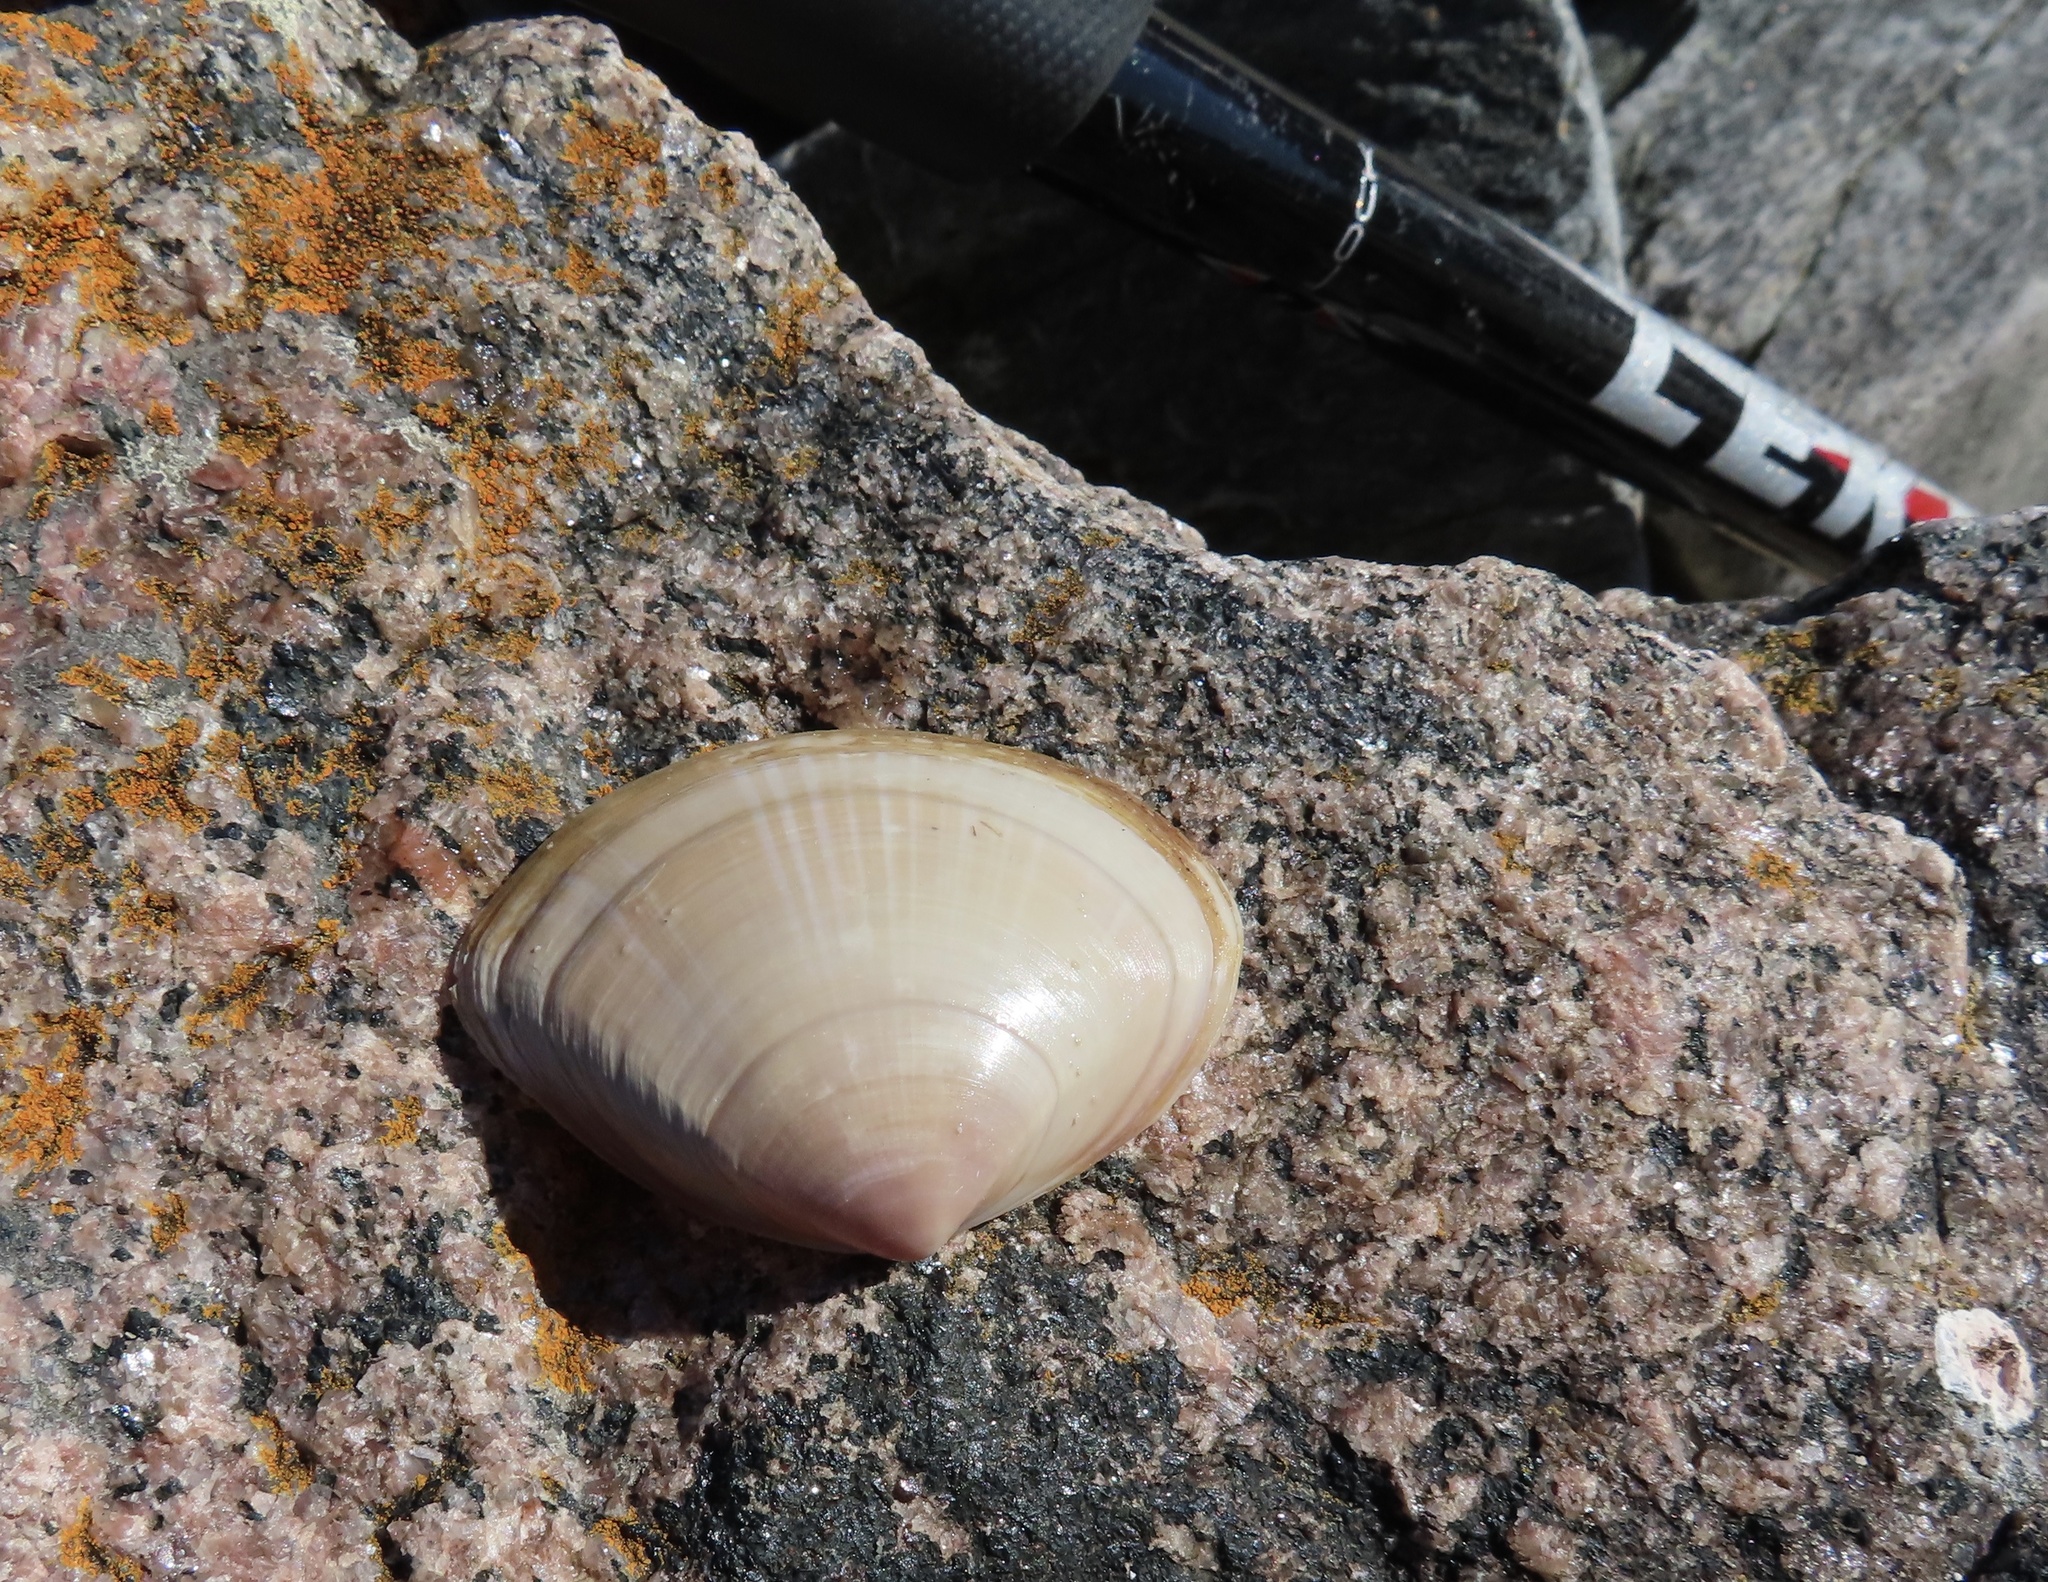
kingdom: Animalia
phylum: Mollusca
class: Bivalvia
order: Venerida
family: Mactridae
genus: Mactra
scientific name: Mactra stultorum
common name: Rayed trough shell
